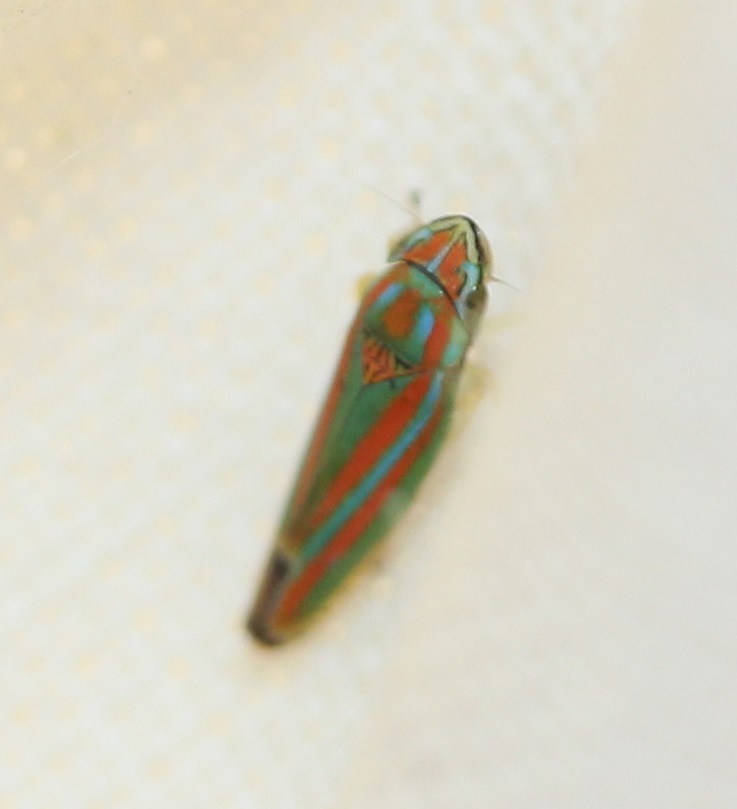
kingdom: Animalia
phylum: Arthropoda
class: Insecta
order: Hemiptera
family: Cicadellidae
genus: Graphocephala
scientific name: Graphocephala versuta
